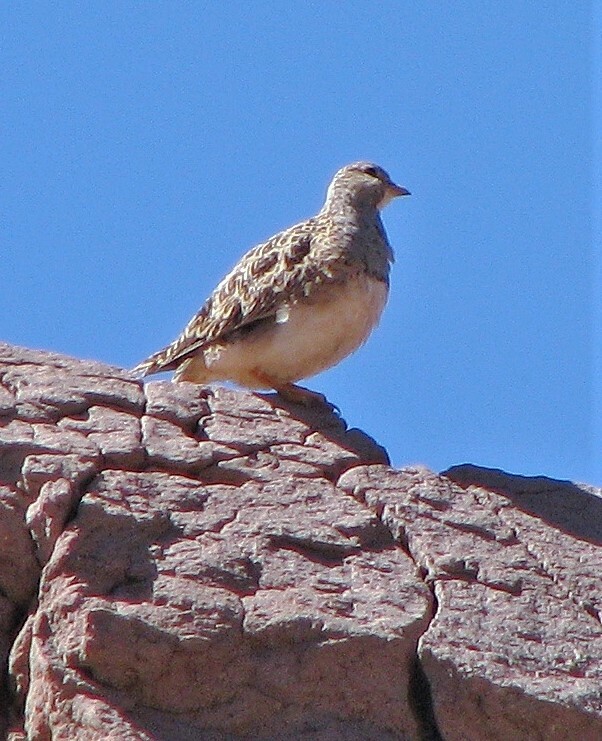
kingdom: Animalia
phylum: Chordata
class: Aves
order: Charadriiformes
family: Thinocoridae
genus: Thinocorus
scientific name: Thinocorus orbignyianus
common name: Grey-breasted seedsnipe
